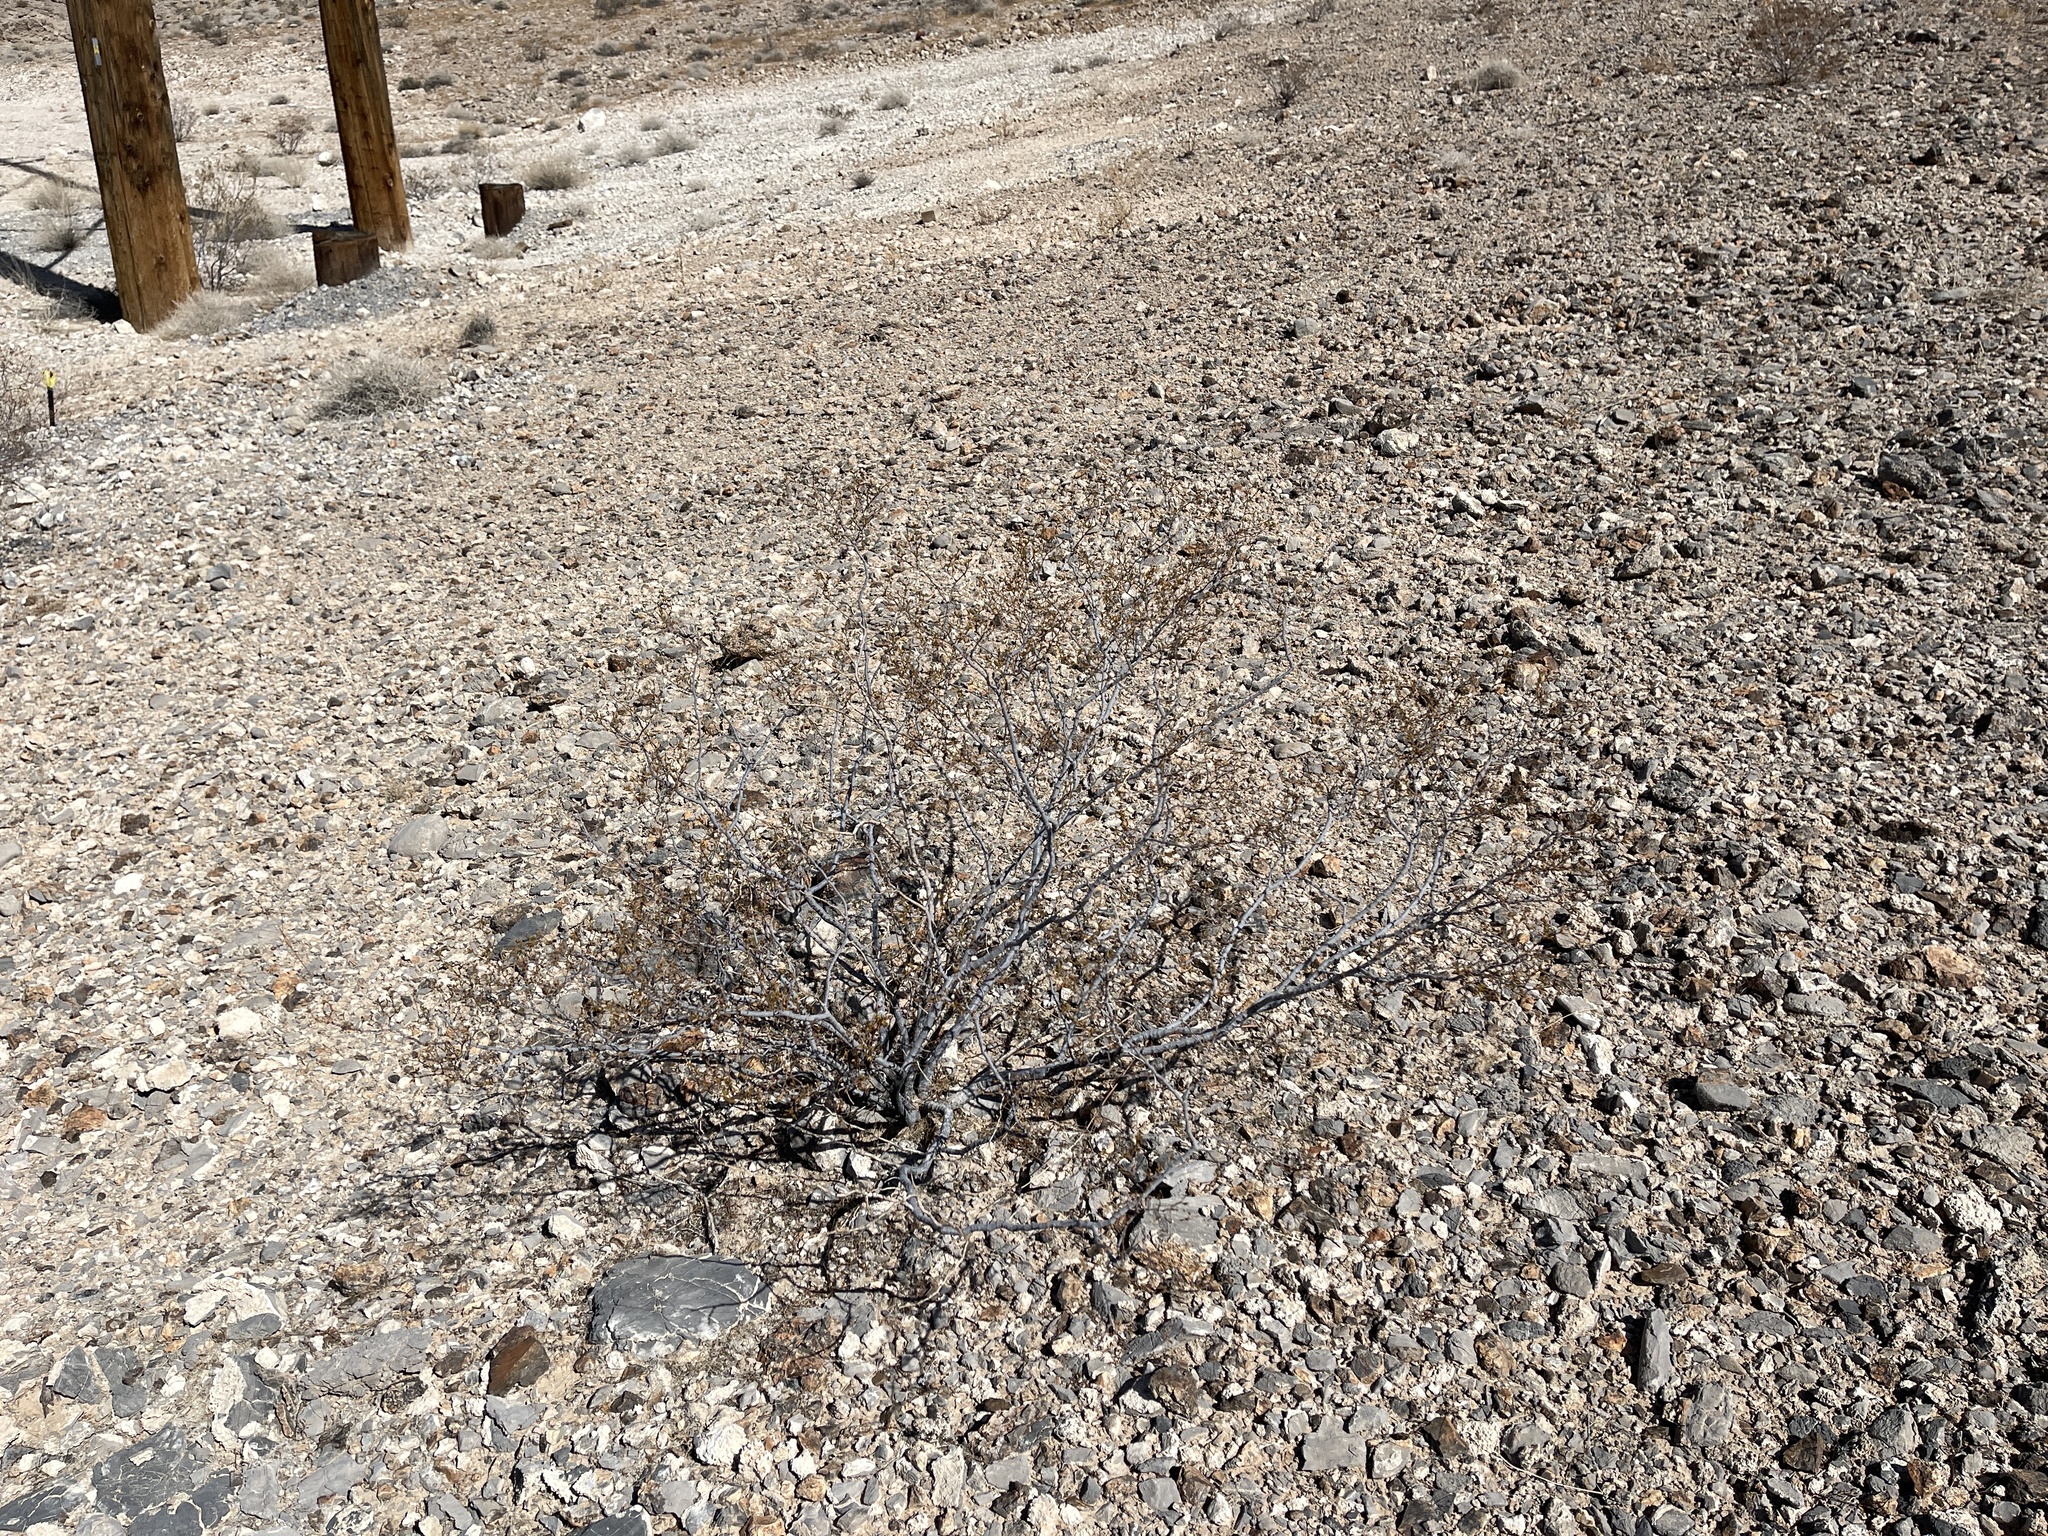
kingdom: Plantae
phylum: Tracheophyta
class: Magnoliopsida
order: Zygophyllales
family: Zygophyllaceae
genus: Larrea
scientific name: Larrea tridentata
